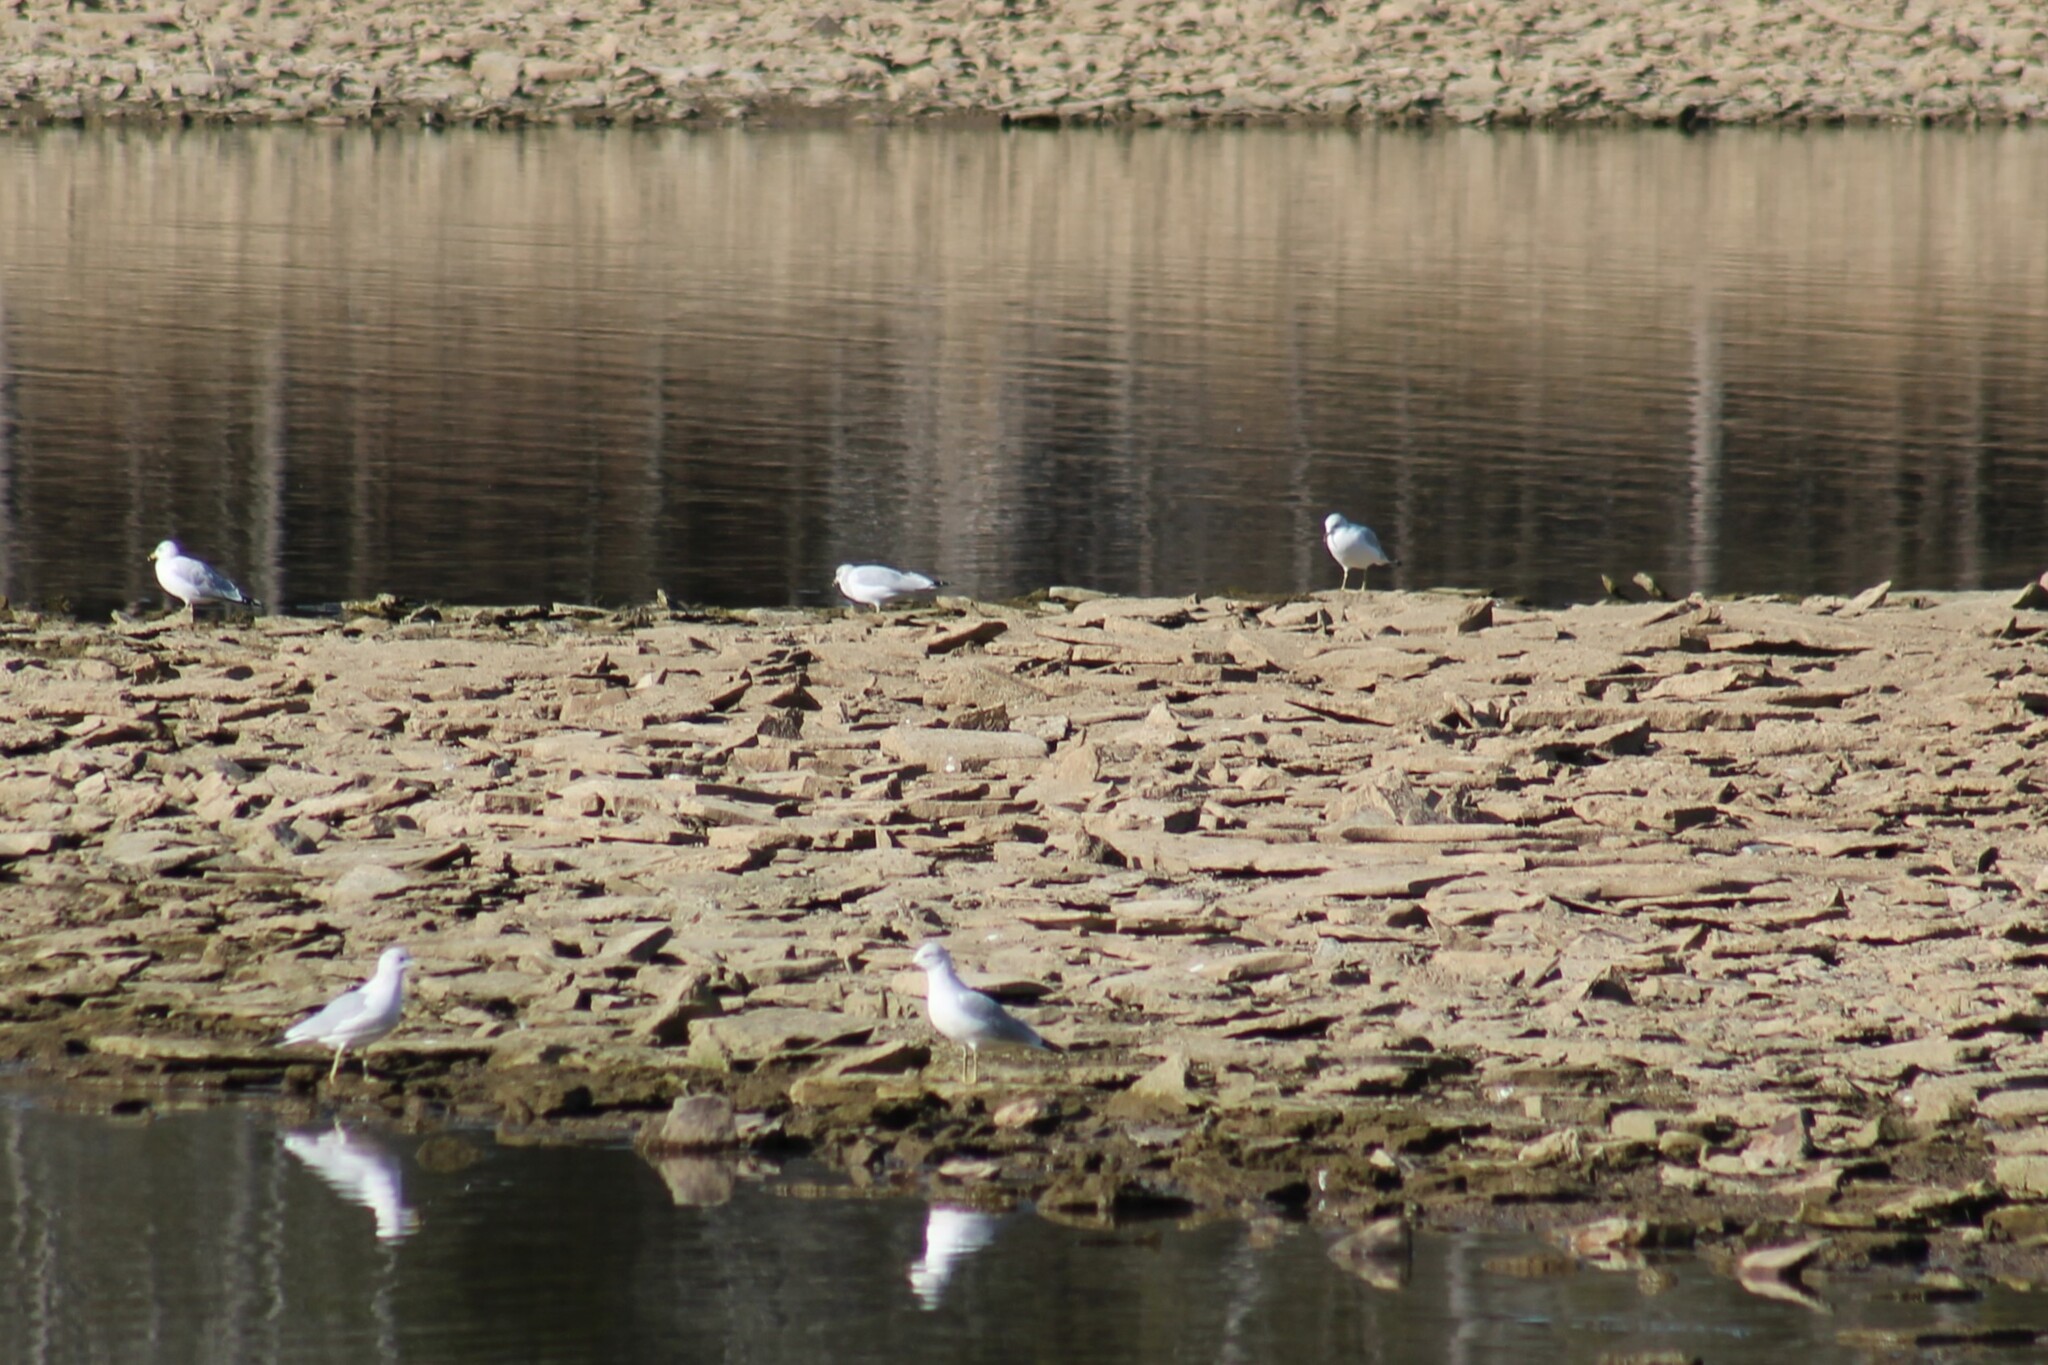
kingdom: Animalia
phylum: Chordata
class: Aves
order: Charadriiformes
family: Laridae
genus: Larus
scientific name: Larus delawarensis
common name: Ring-billed gull
